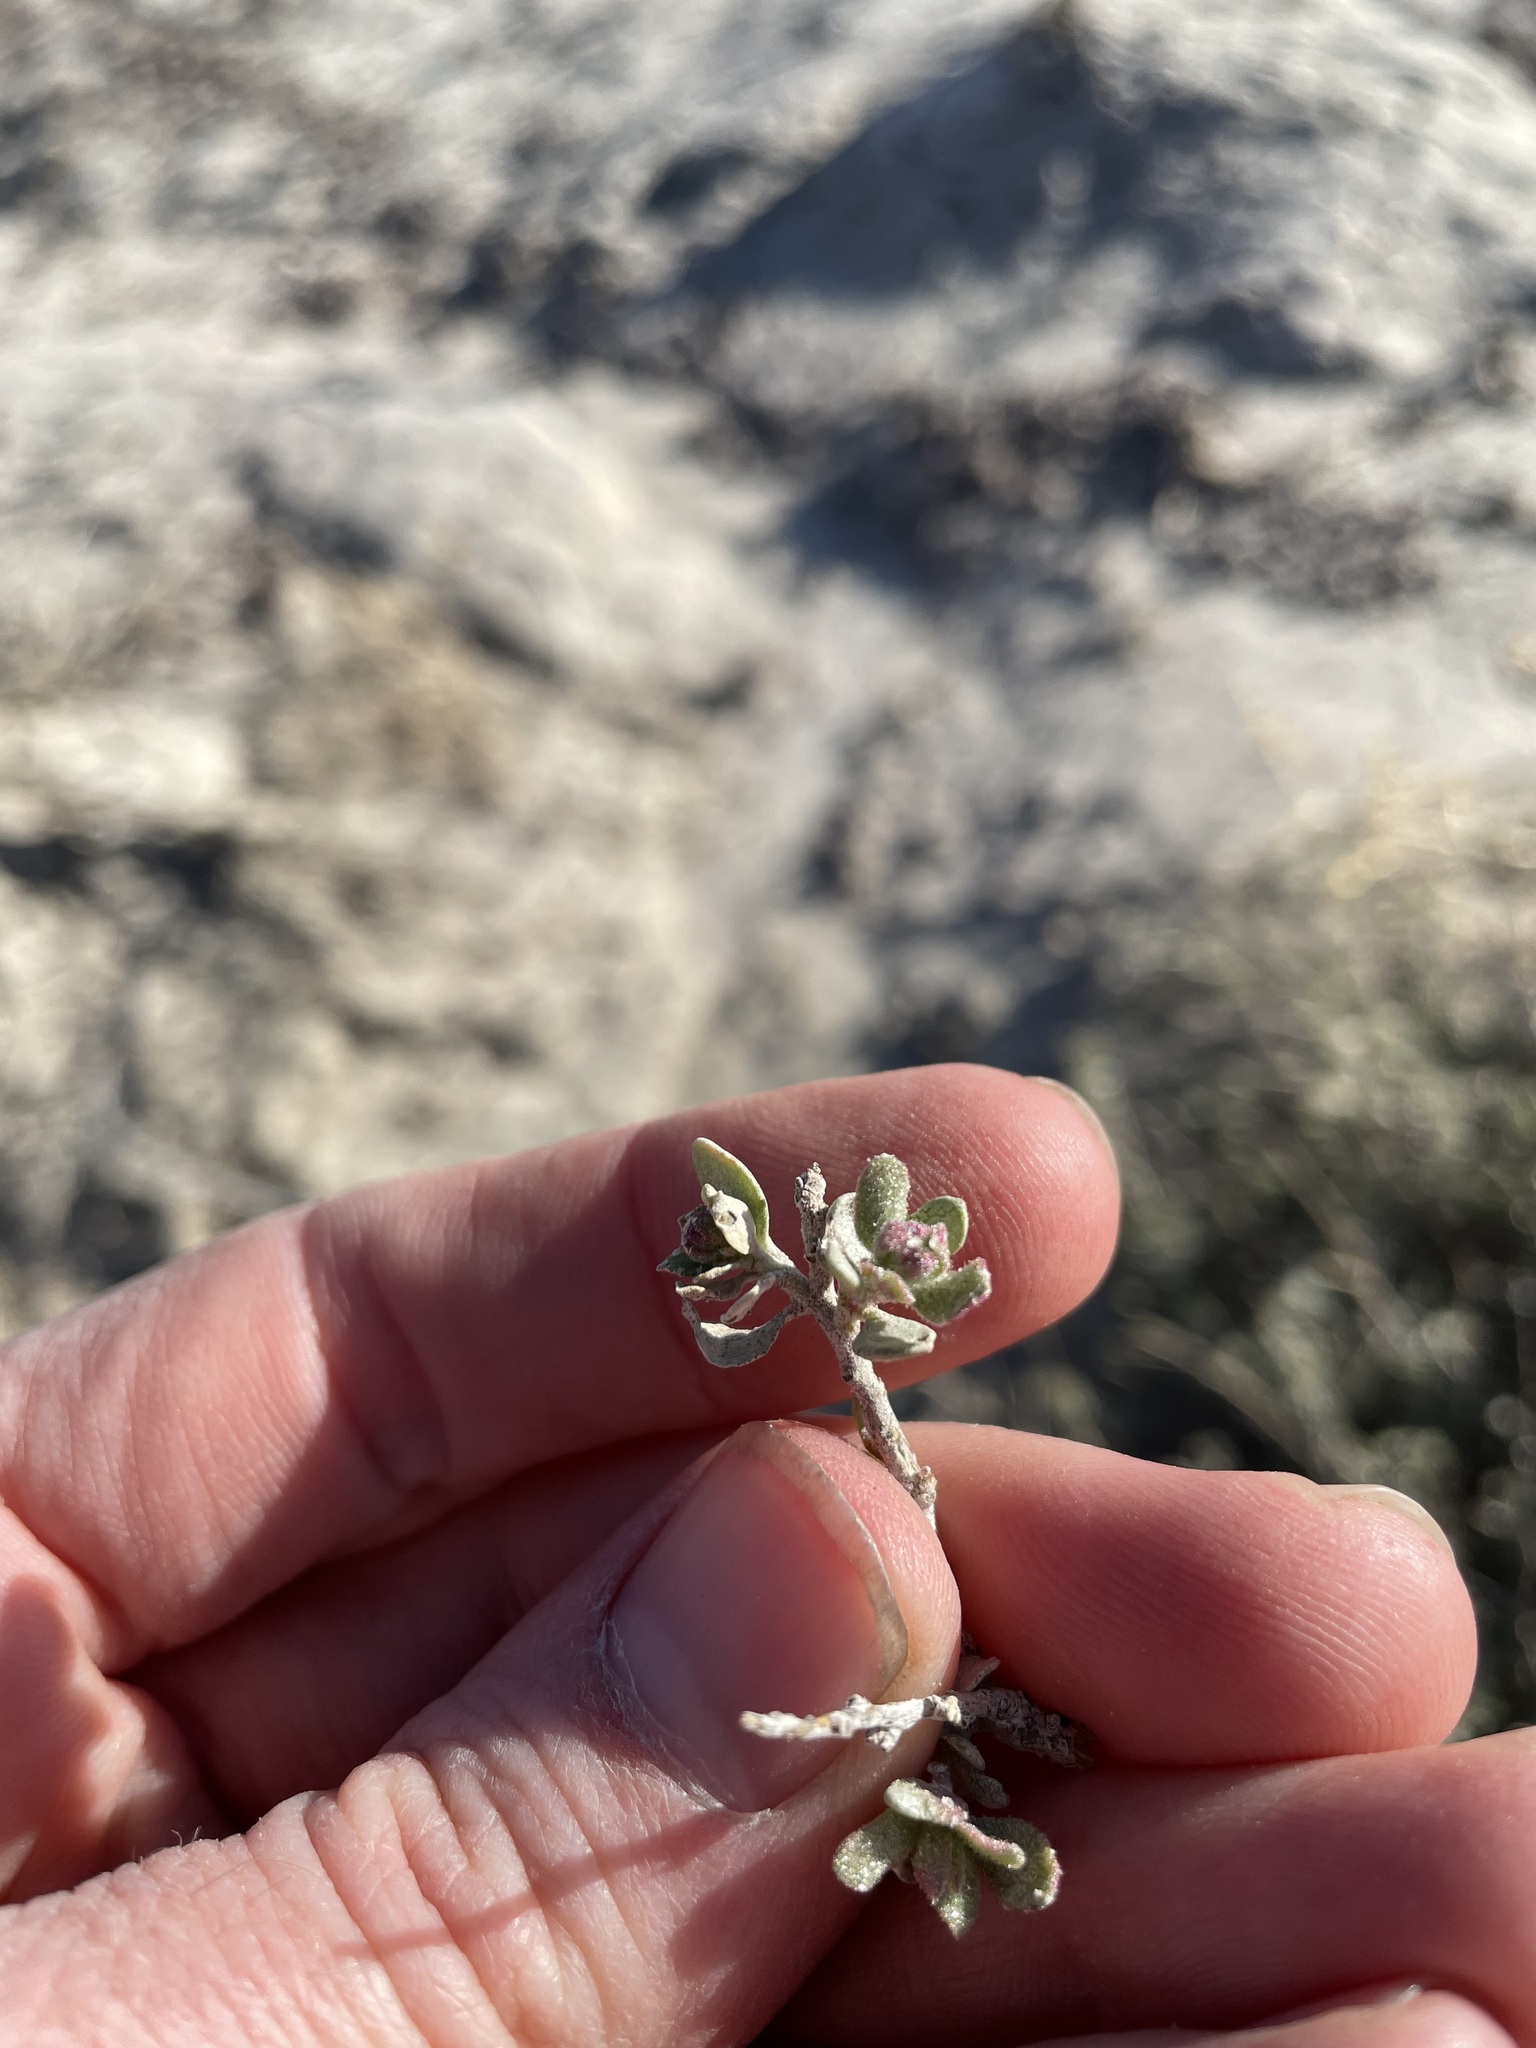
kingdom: Plantae
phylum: Tracheophyta
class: Magnoliopsida
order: Caryophyllales
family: Amaranthaceae
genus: Atriplex
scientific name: Atriplex confertifolia
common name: Shadscale
